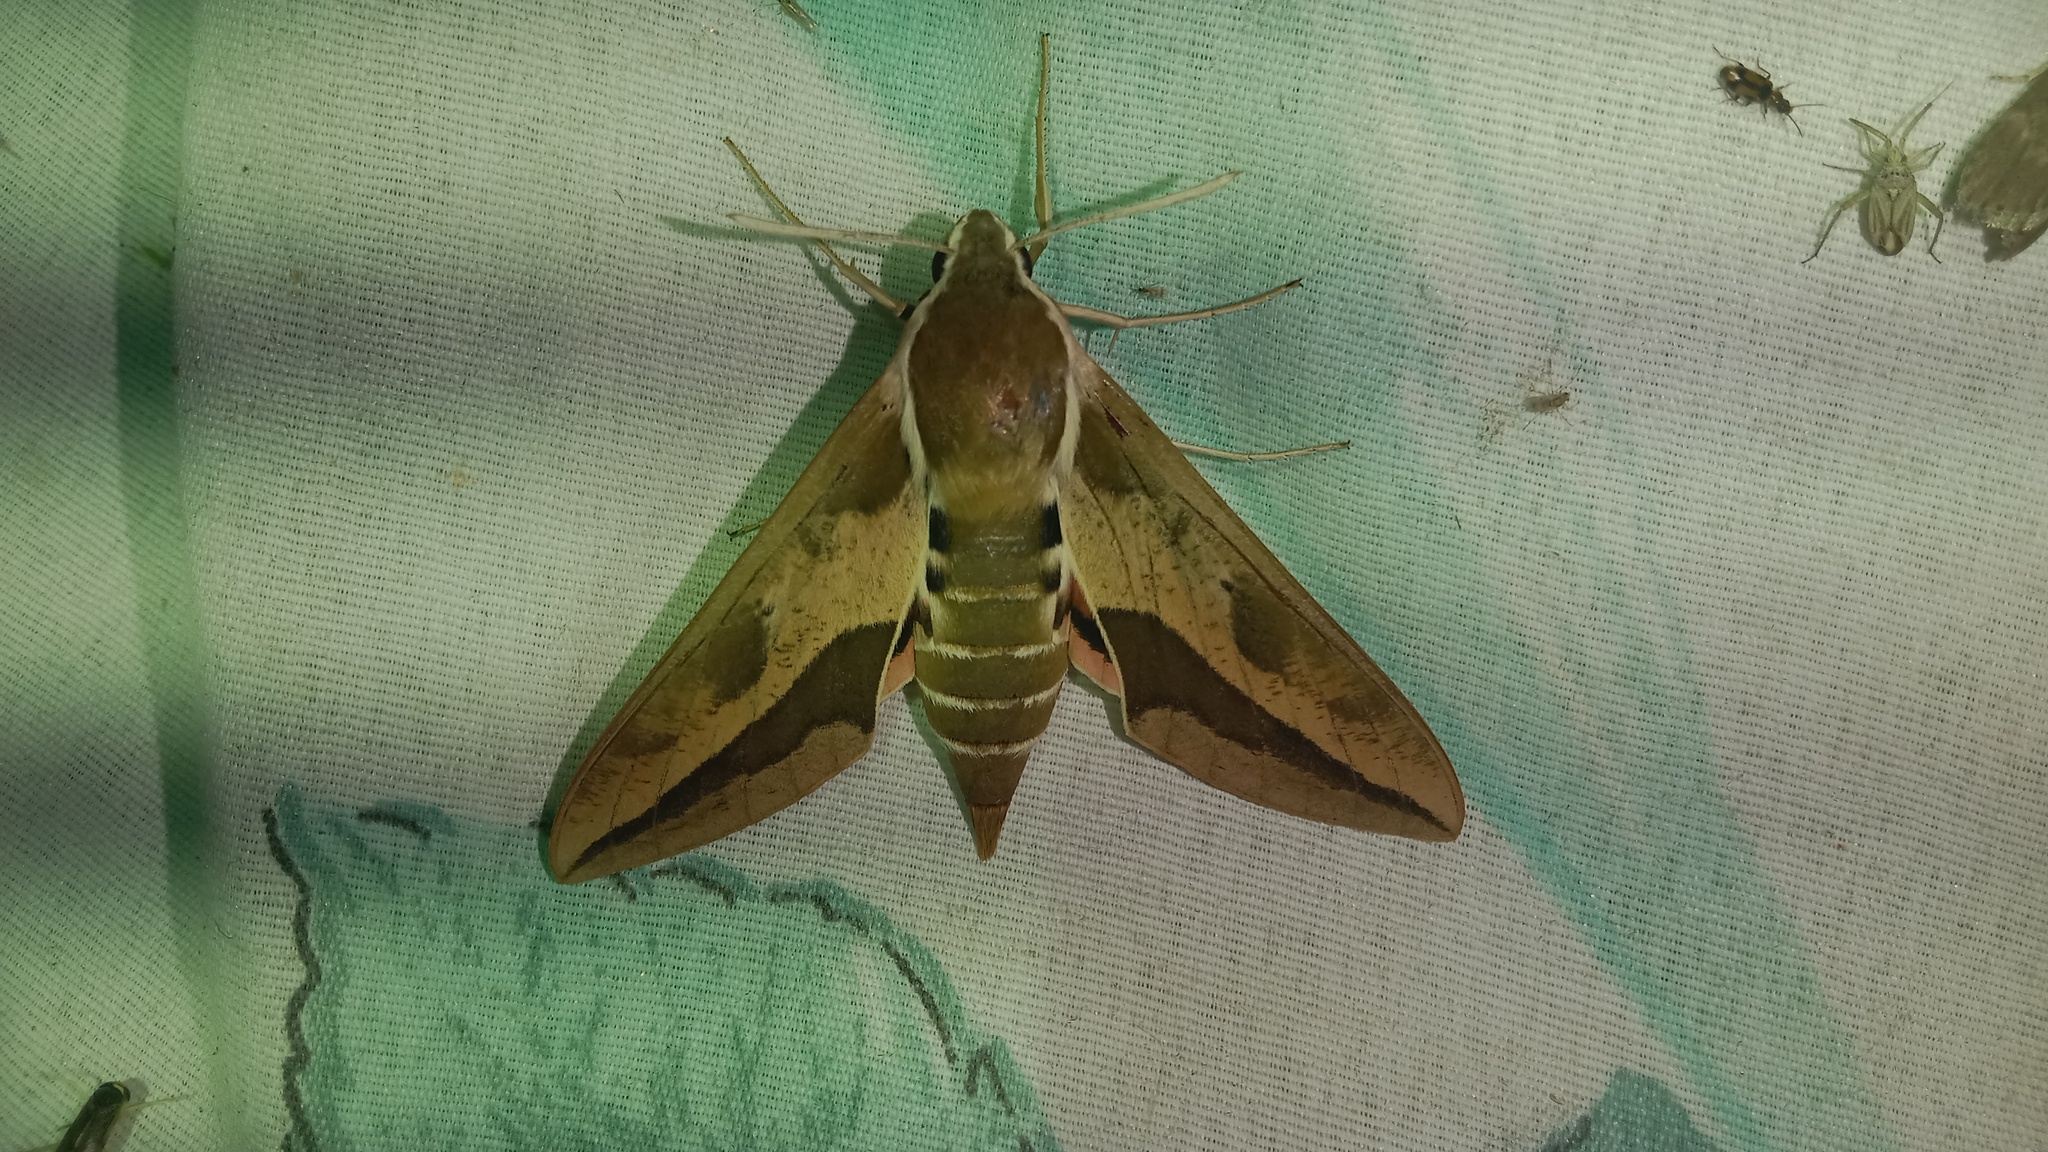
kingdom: Animalia
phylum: Arthropoda
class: Insecta
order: Lepidoptera
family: Sphingidae
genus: Hyles
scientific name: Hyles euphorbiae
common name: Spurge hawk-moth
